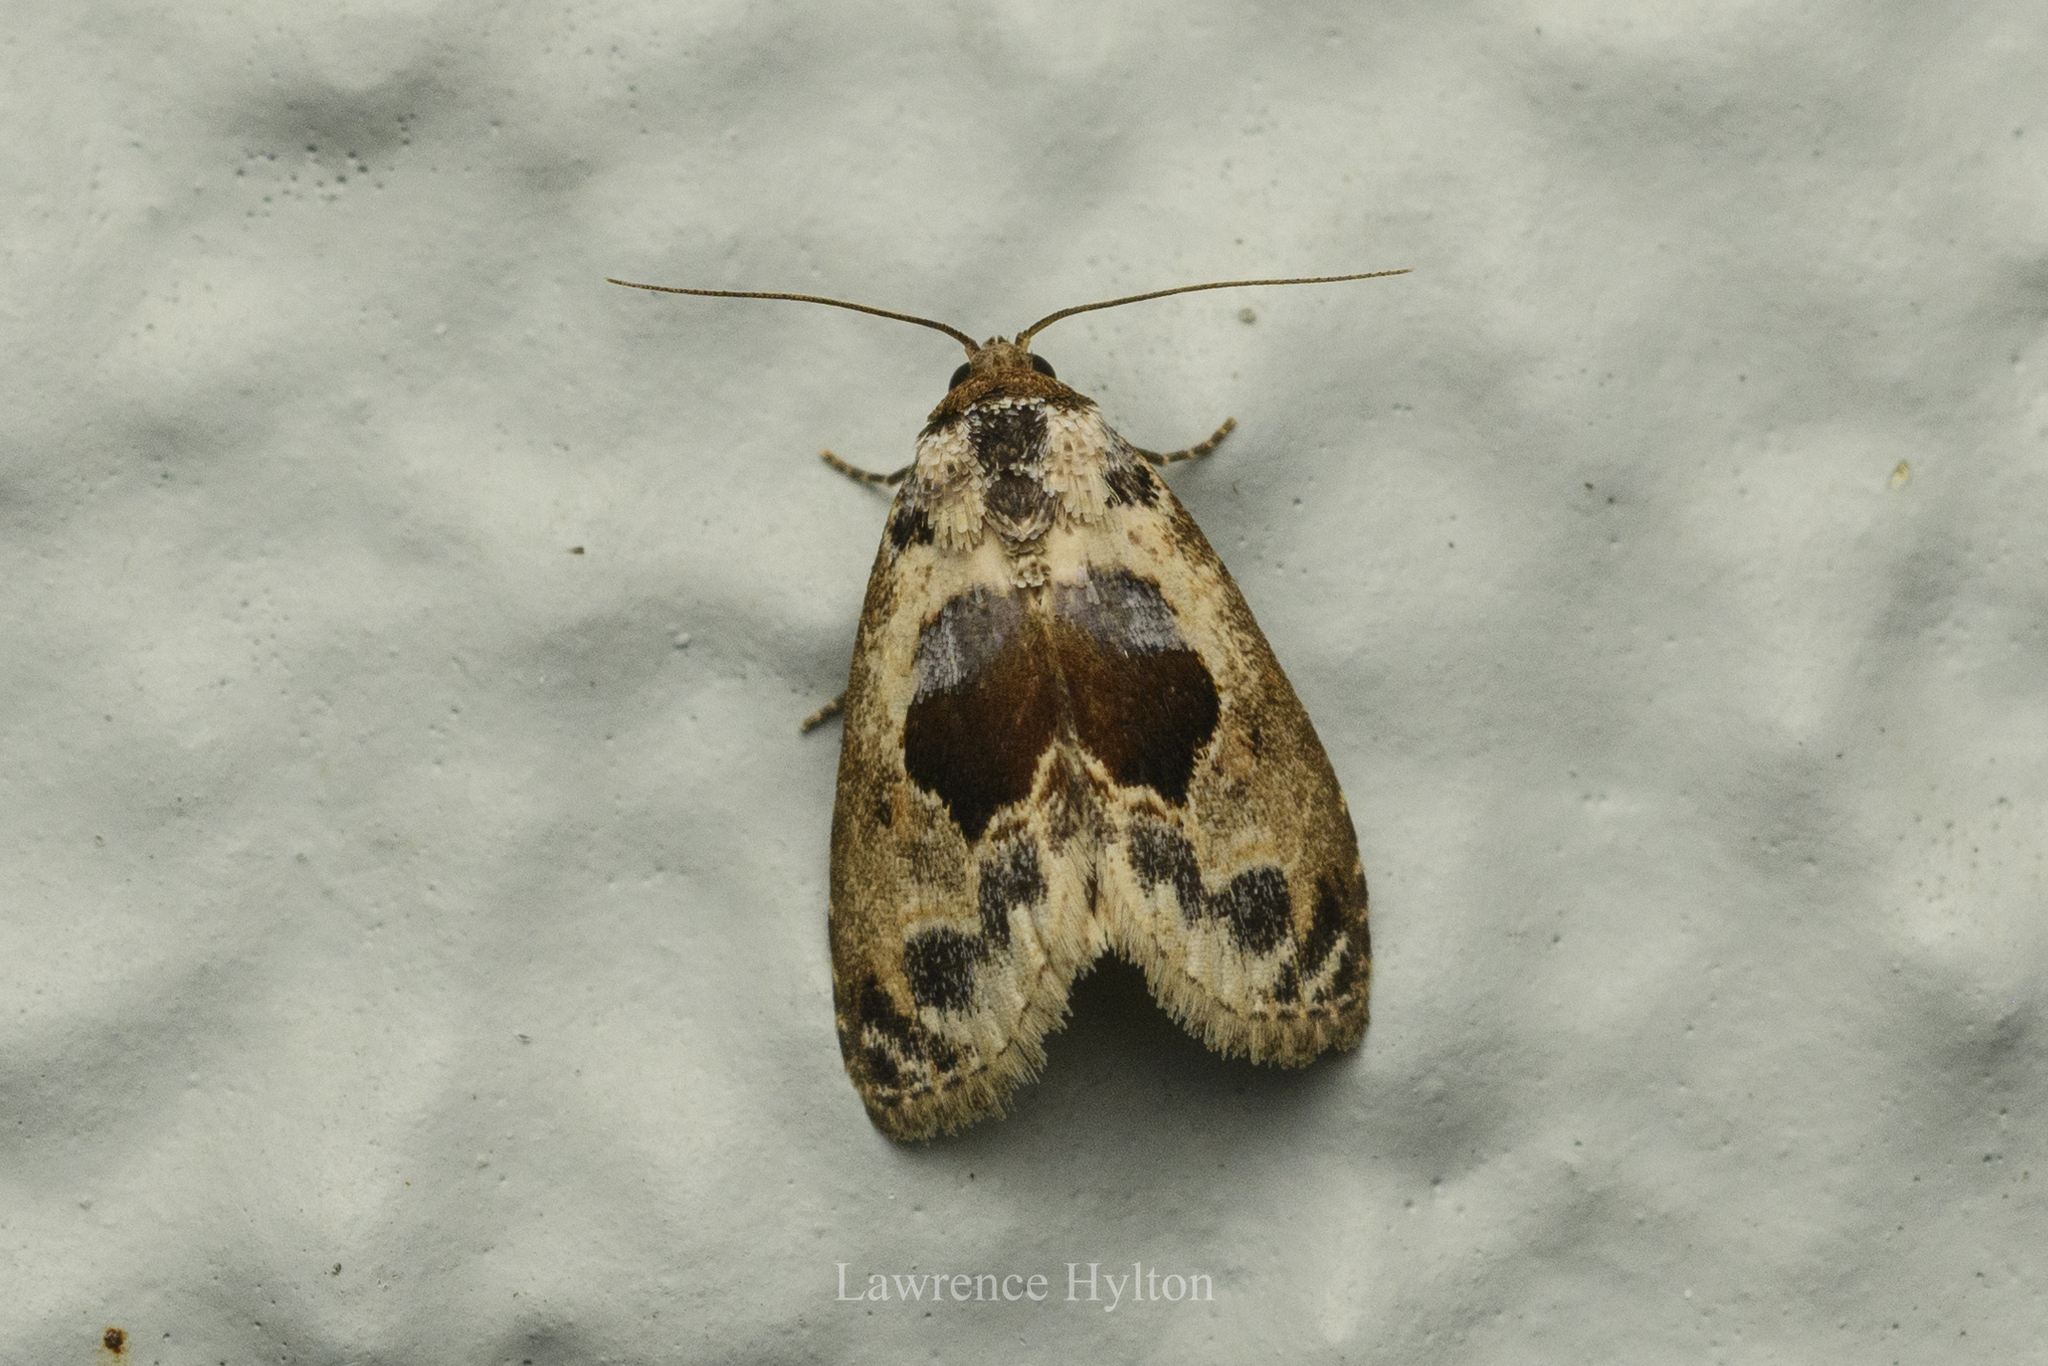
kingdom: Animalia
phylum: Arthropoda
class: Insecta
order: Lepidoptera
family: Noctuidae
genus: Meekistrotia
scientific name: Meekistrotia
